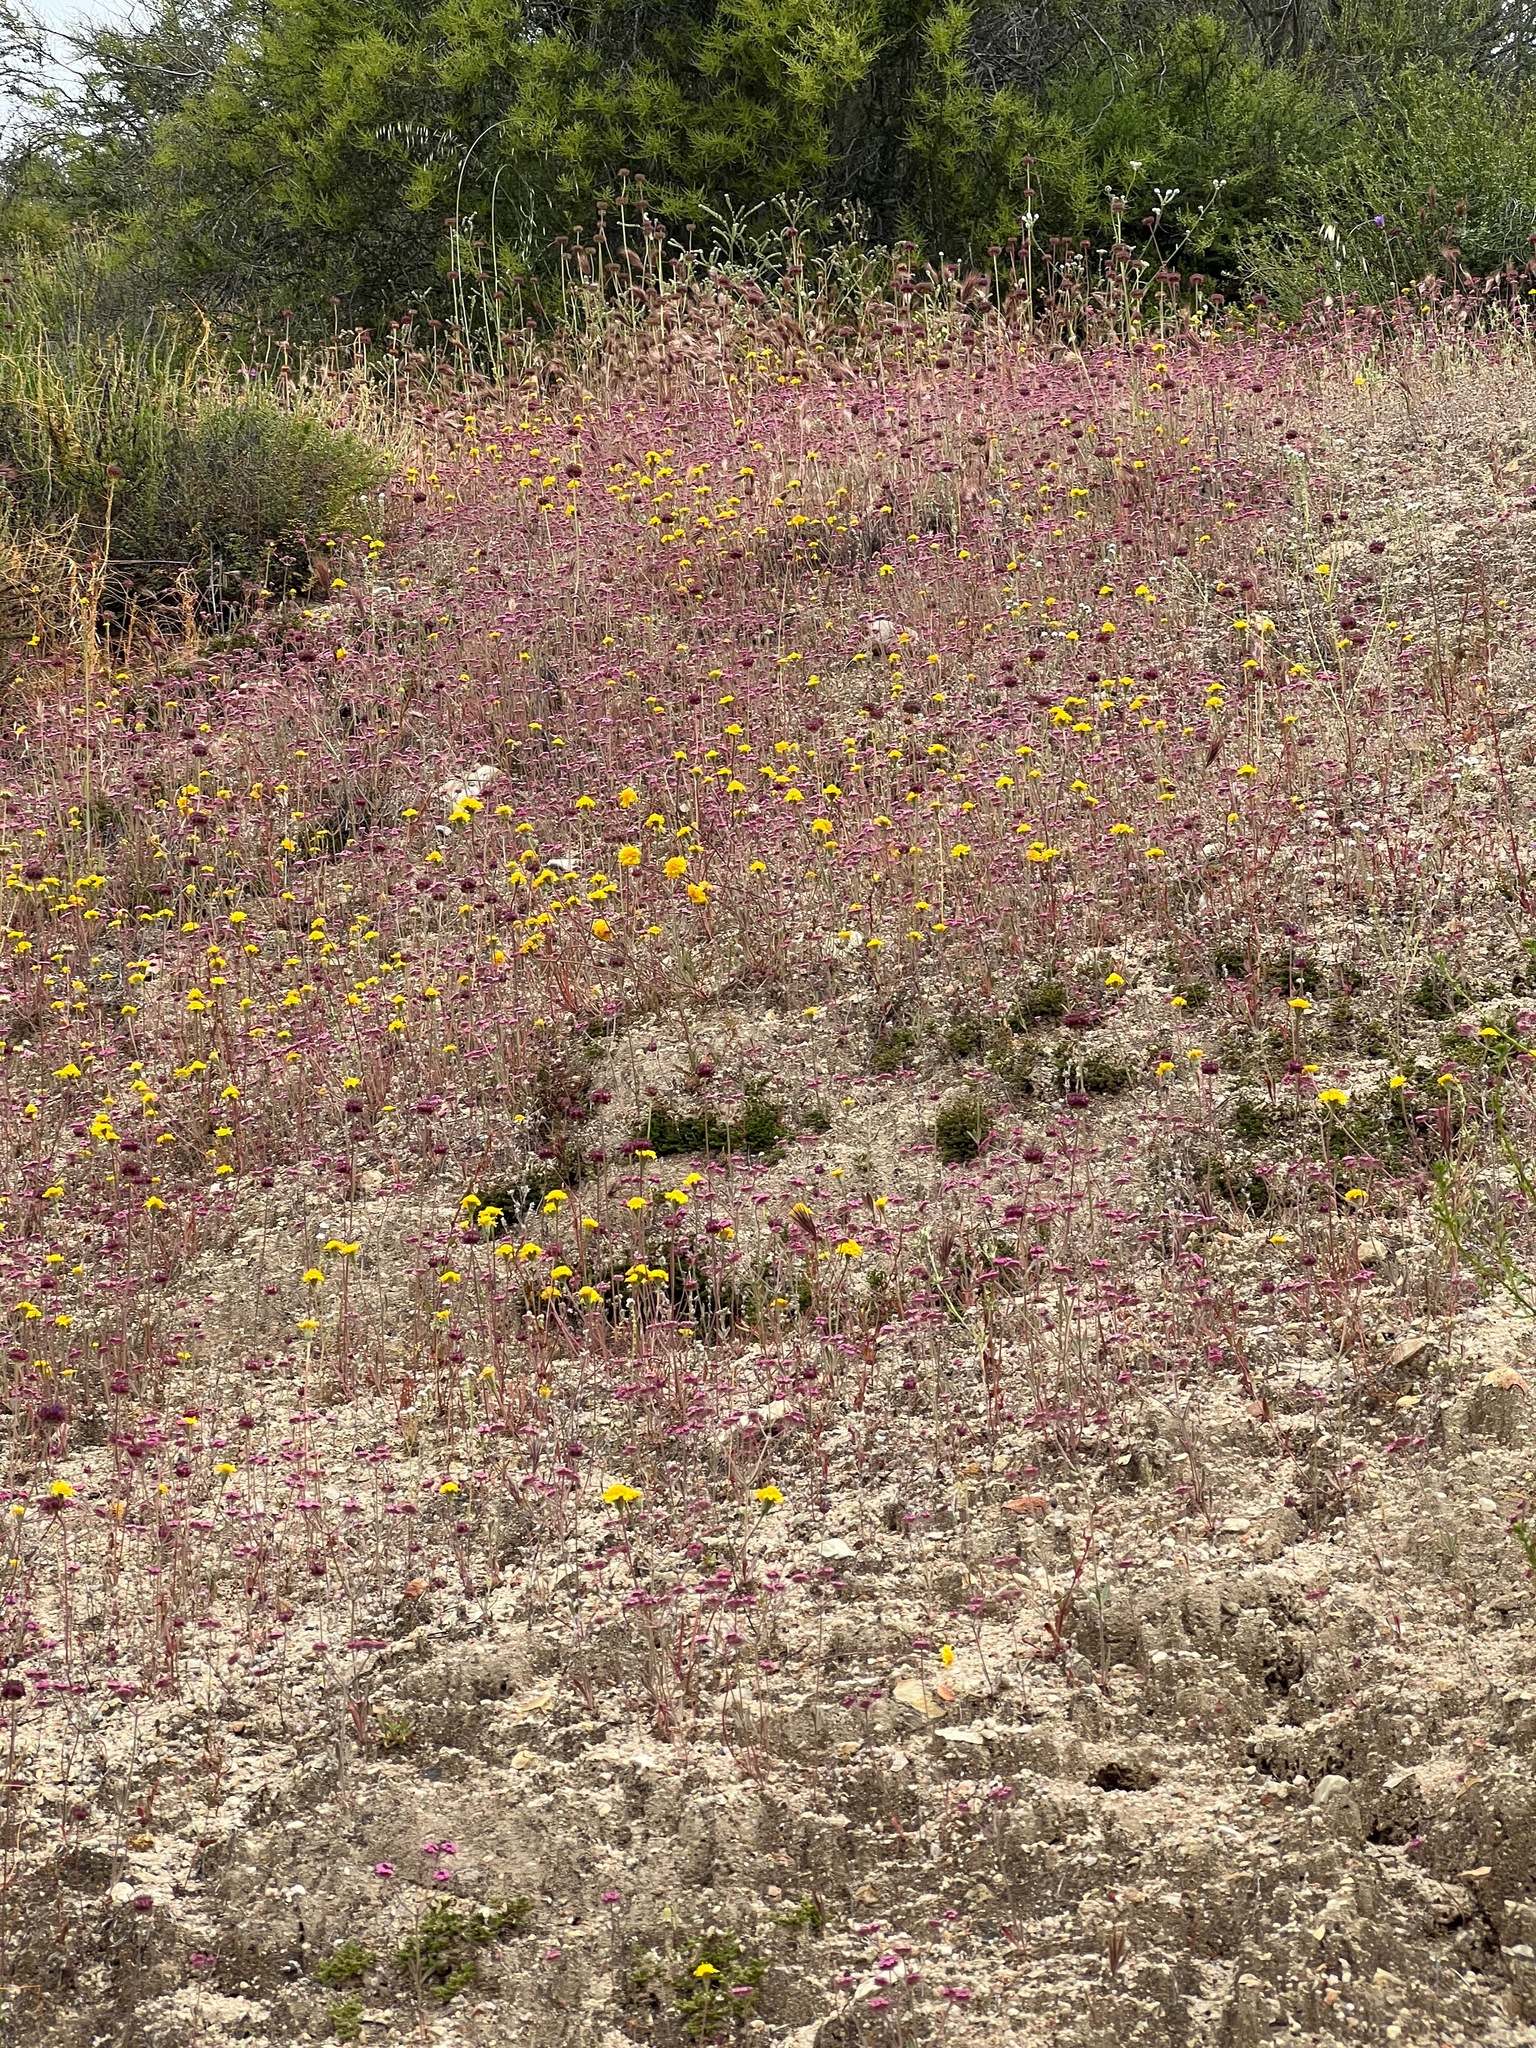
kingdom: Plantae
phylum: Tracheophyta
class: Magnoliopsida
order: Caryophyllales
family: Polygonaceae
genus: Chorizanthe
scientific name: Chorizanthe douglasii
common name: Douglas's spineflower
